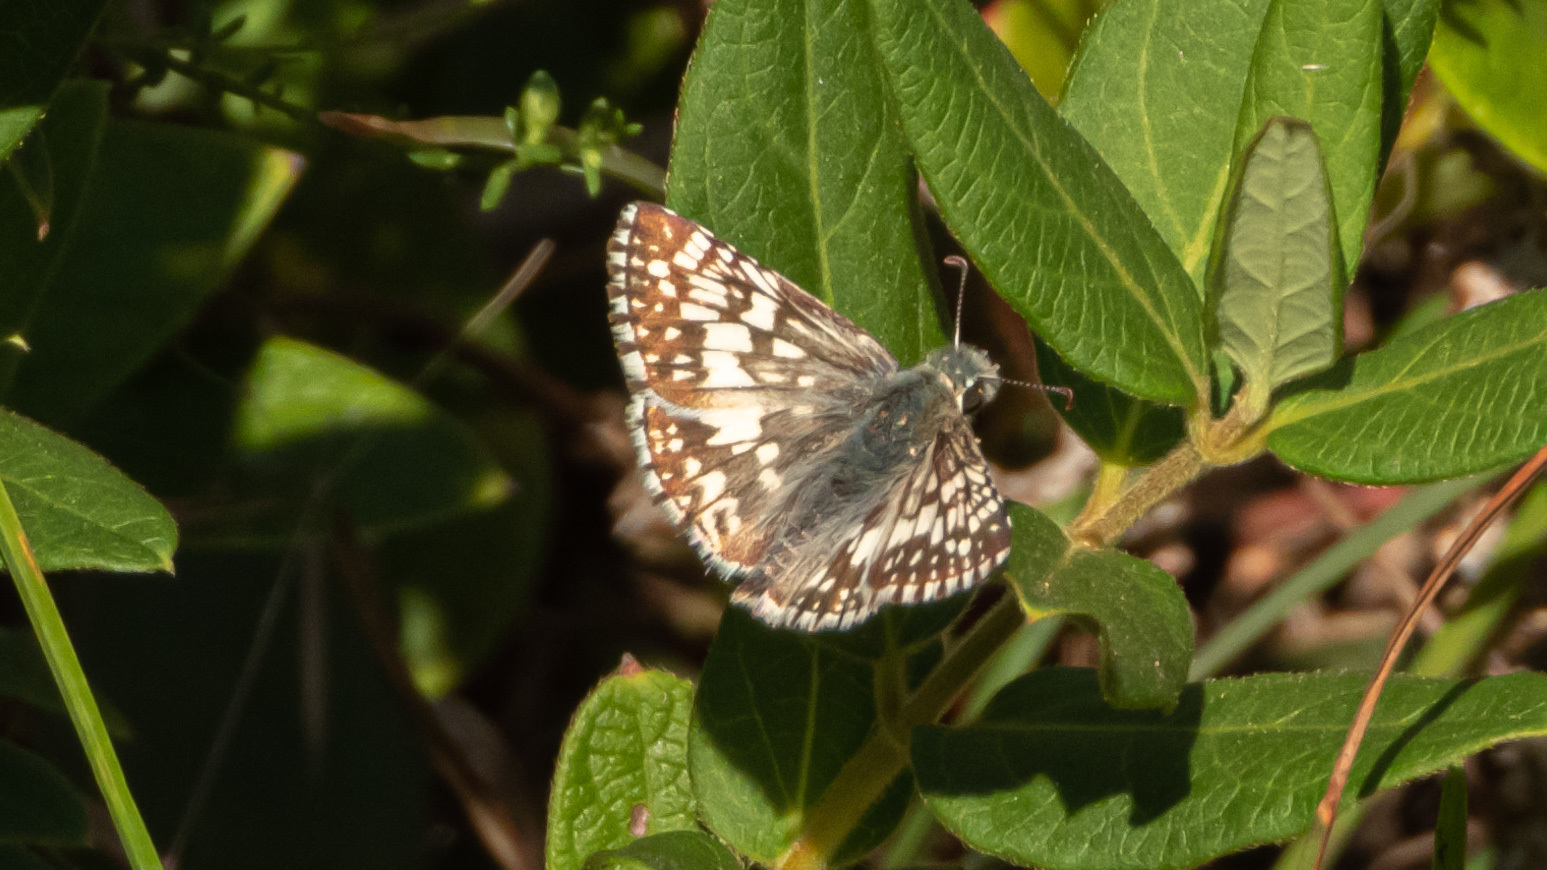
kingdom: Animalia
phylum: Arthropoda
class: Insecta
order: Lepidoptera
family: Hesperiidae
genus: Burnsius
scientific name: Burnsius communis
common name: Common checkered-skipper
